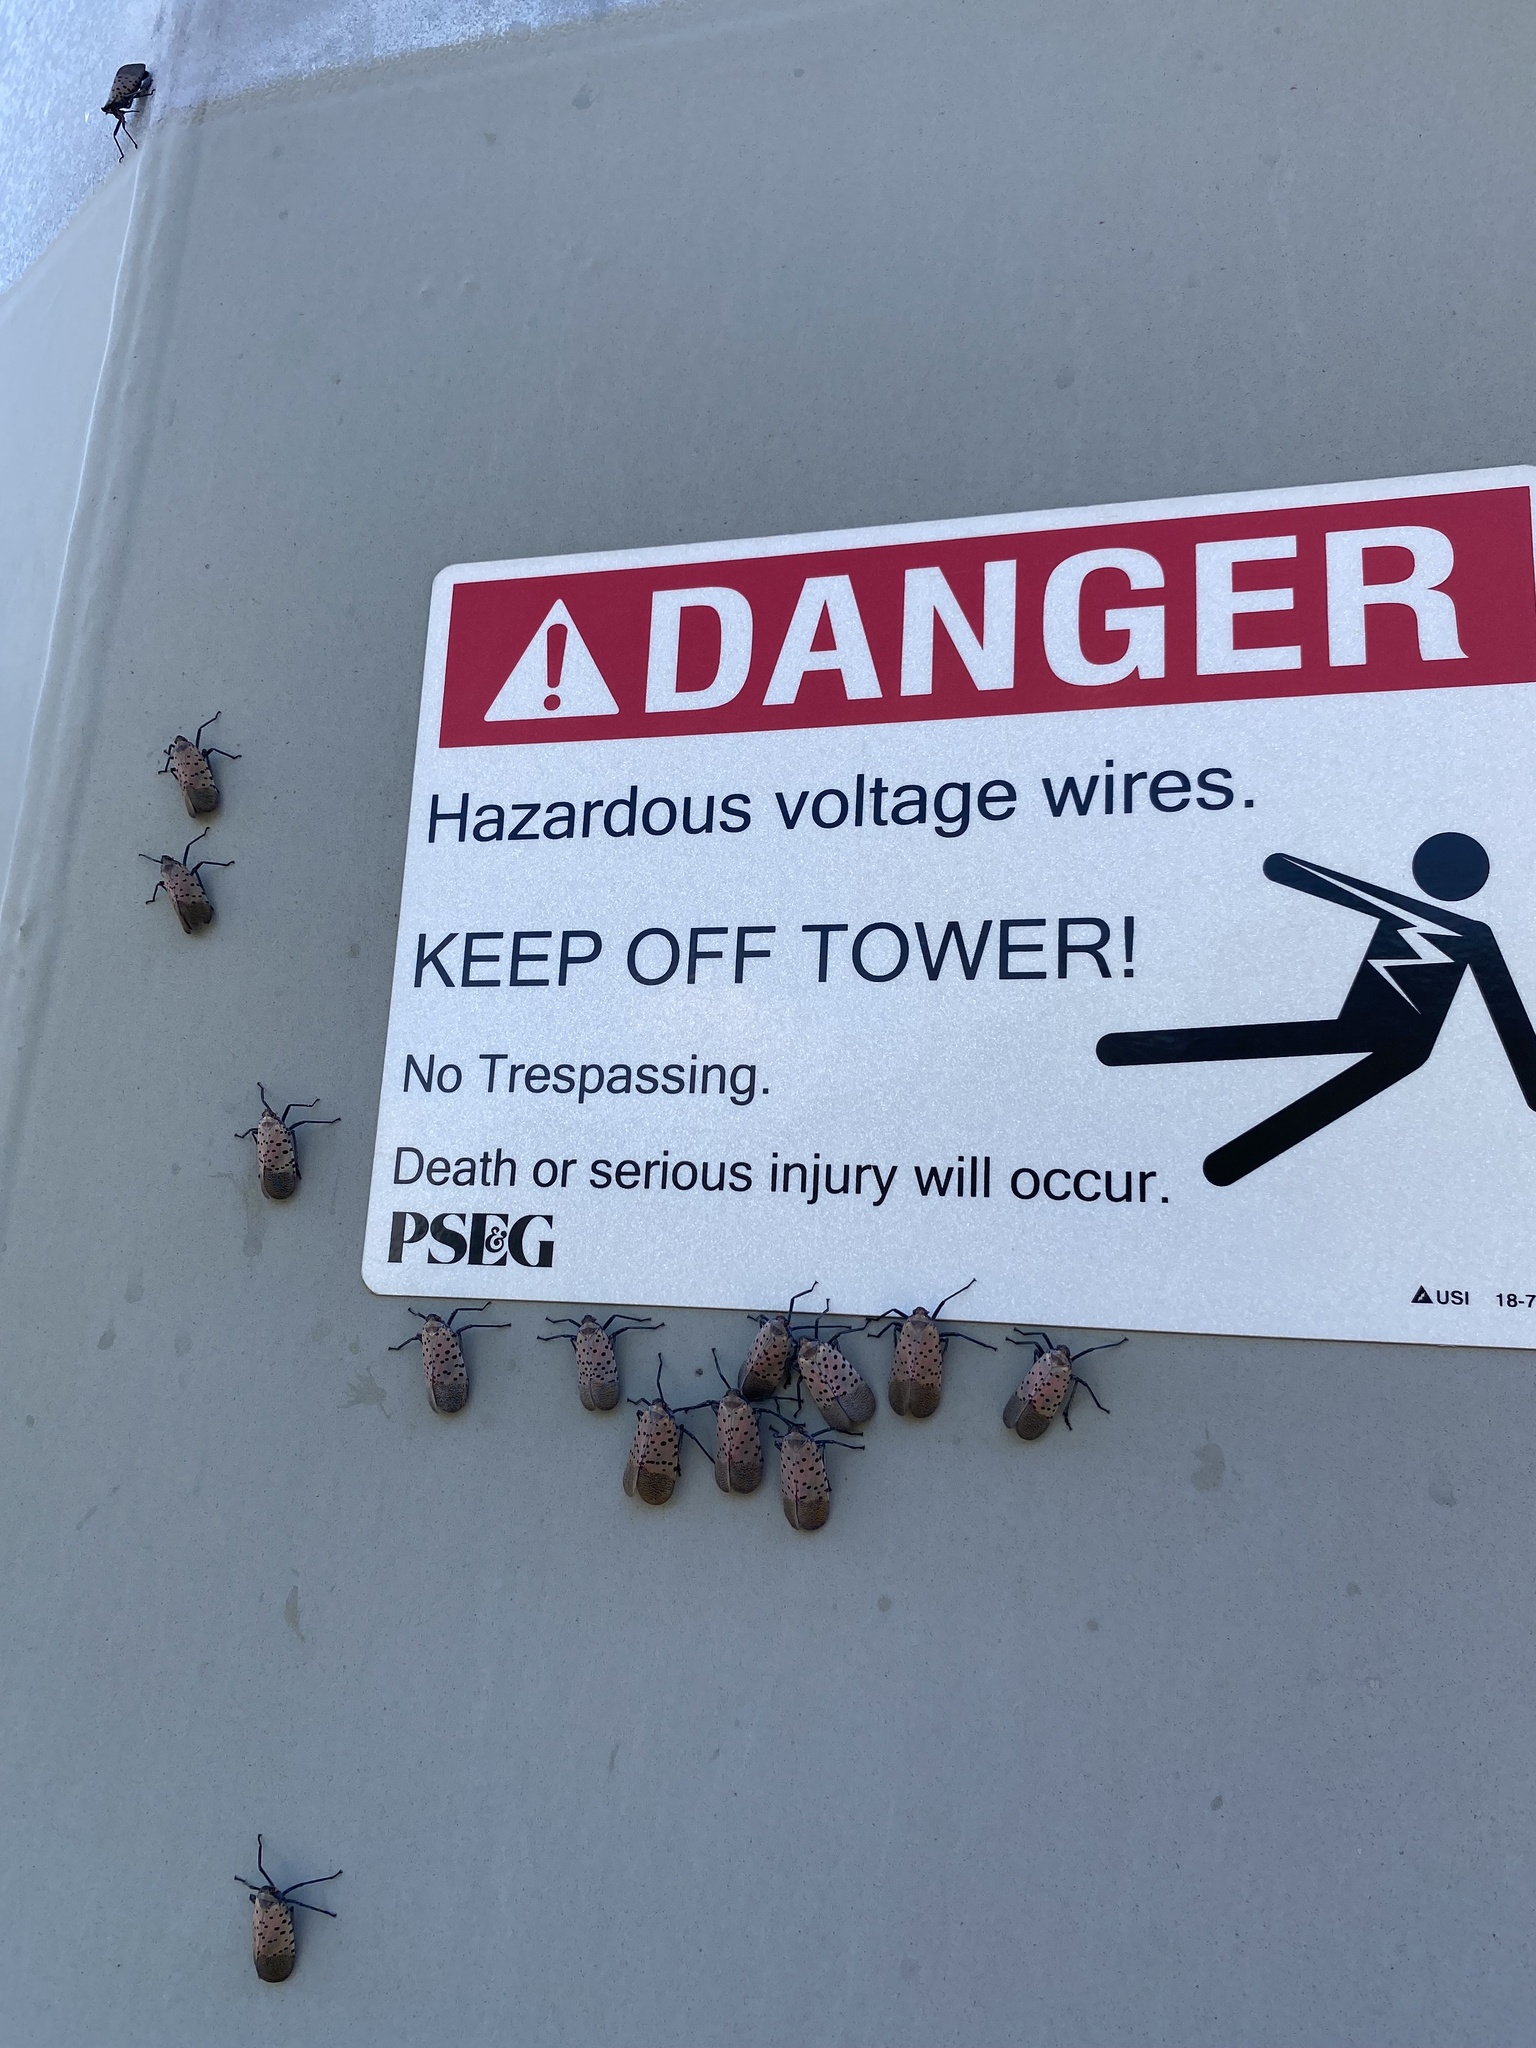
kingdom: Animalia
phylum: Arthropoda
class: Insecta
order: Hemiptera
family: Fulgoridae
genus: Lycorma
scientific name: Lycorma delicatula
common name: Spotted lanternfly
